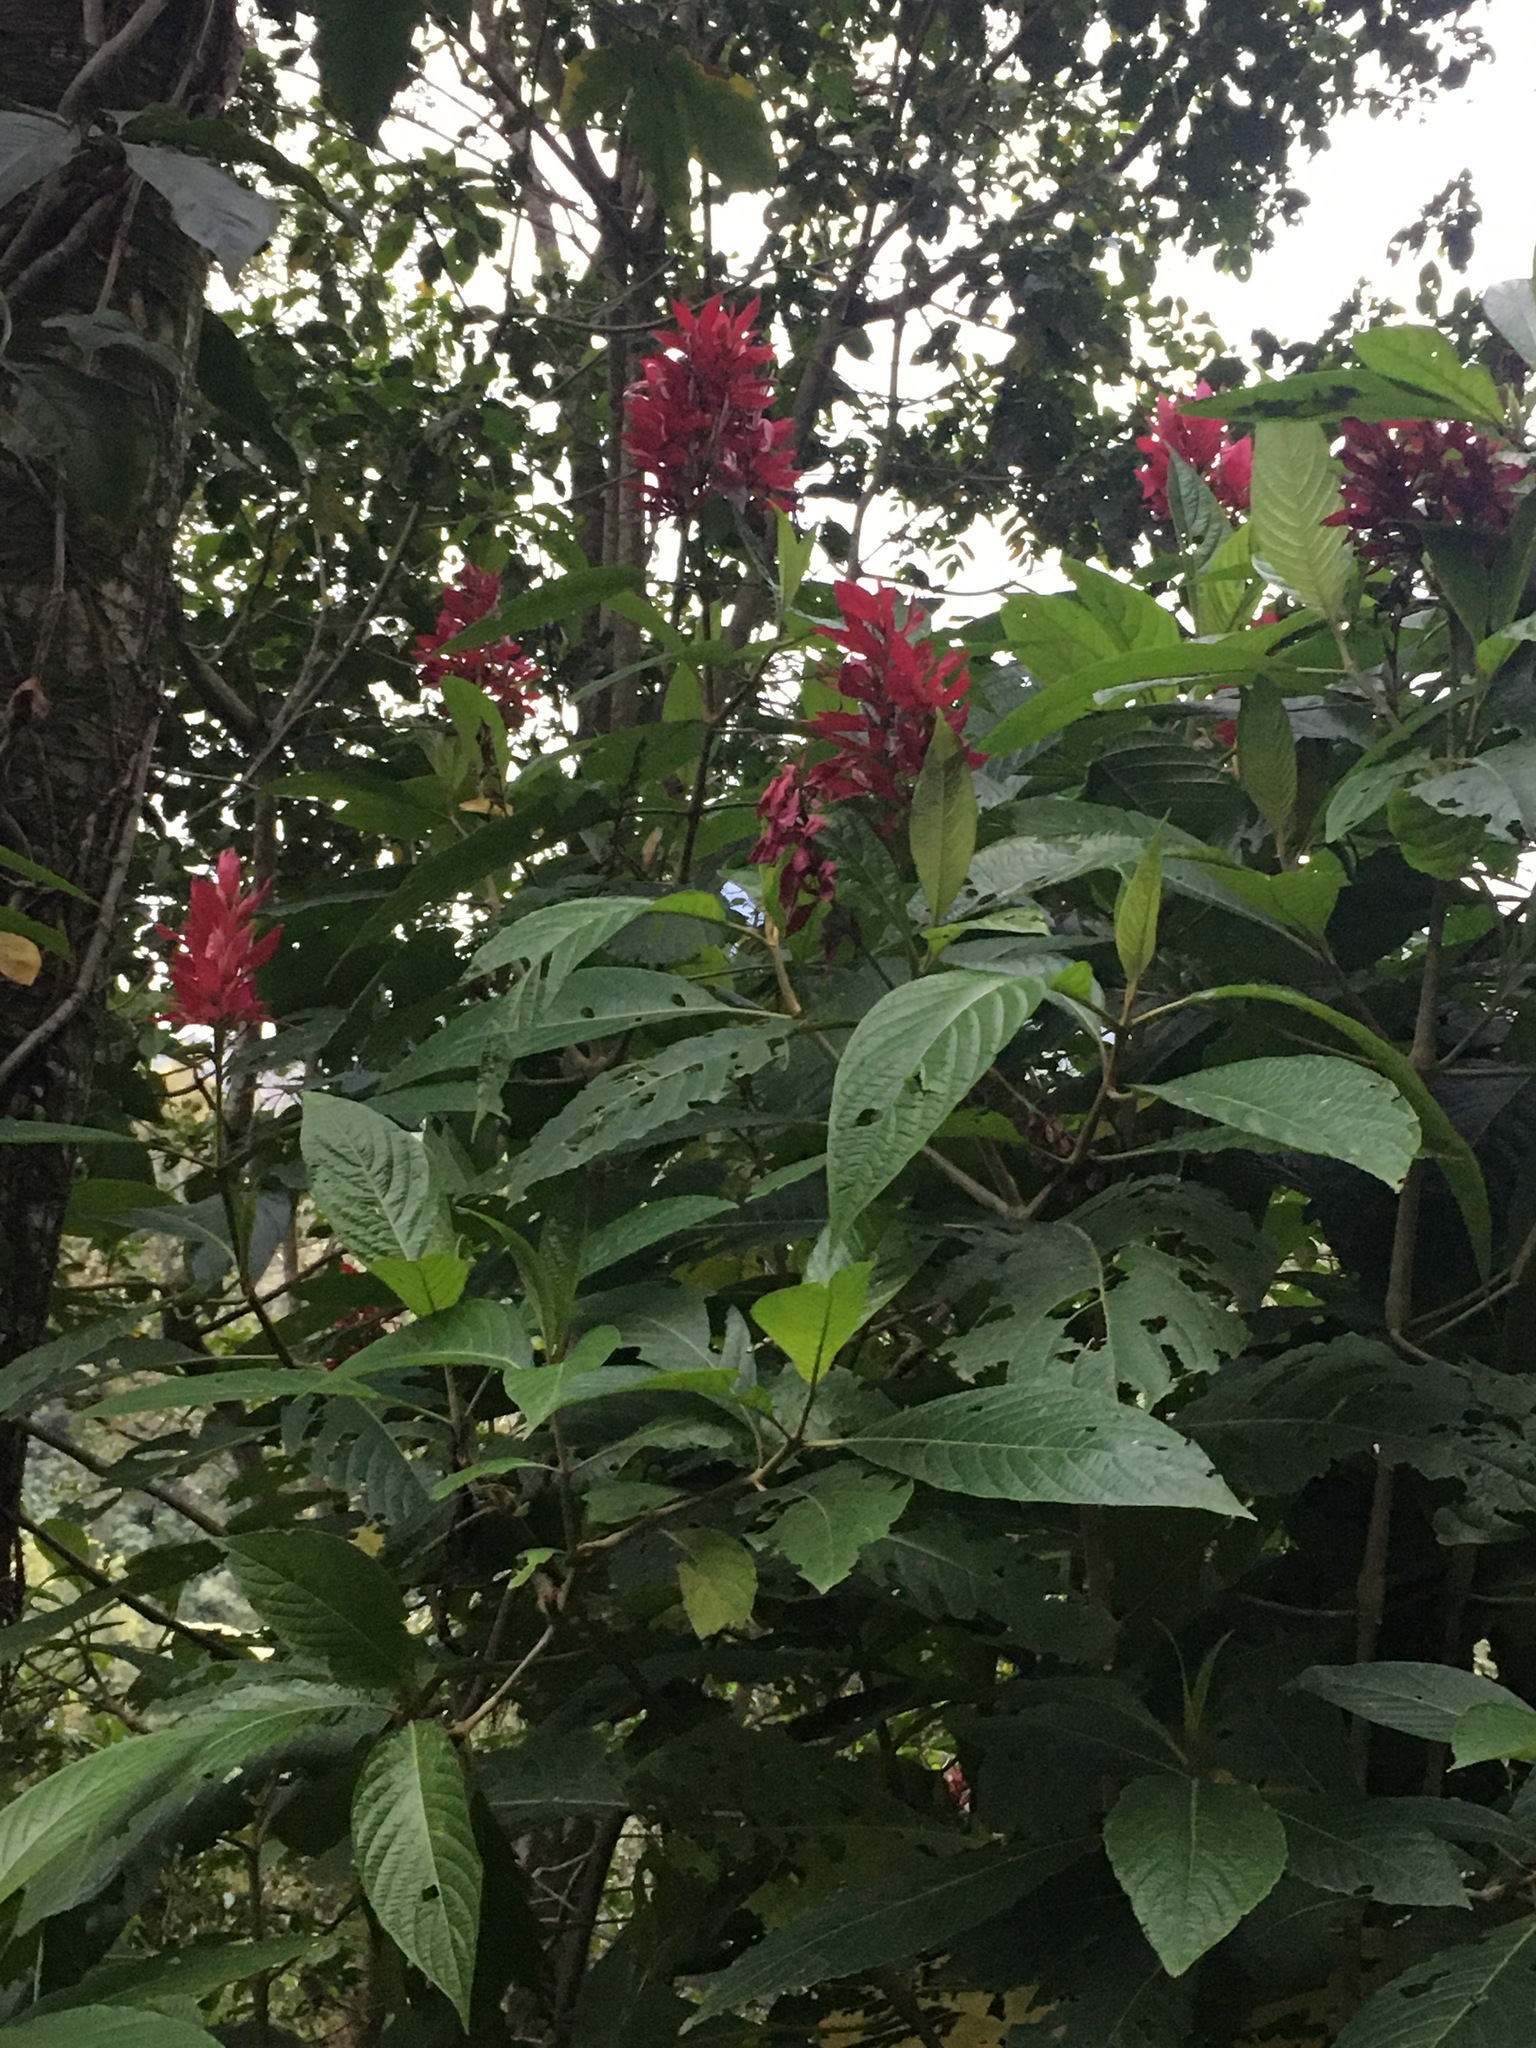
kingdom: Plantae
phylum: Tracheophyta
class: Magnoliopsida
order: Lamiales
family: Acanthaceae
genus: Megaskepasma
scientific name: Megaskepasma erythrochlamys
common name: Brazilian red-cloak
